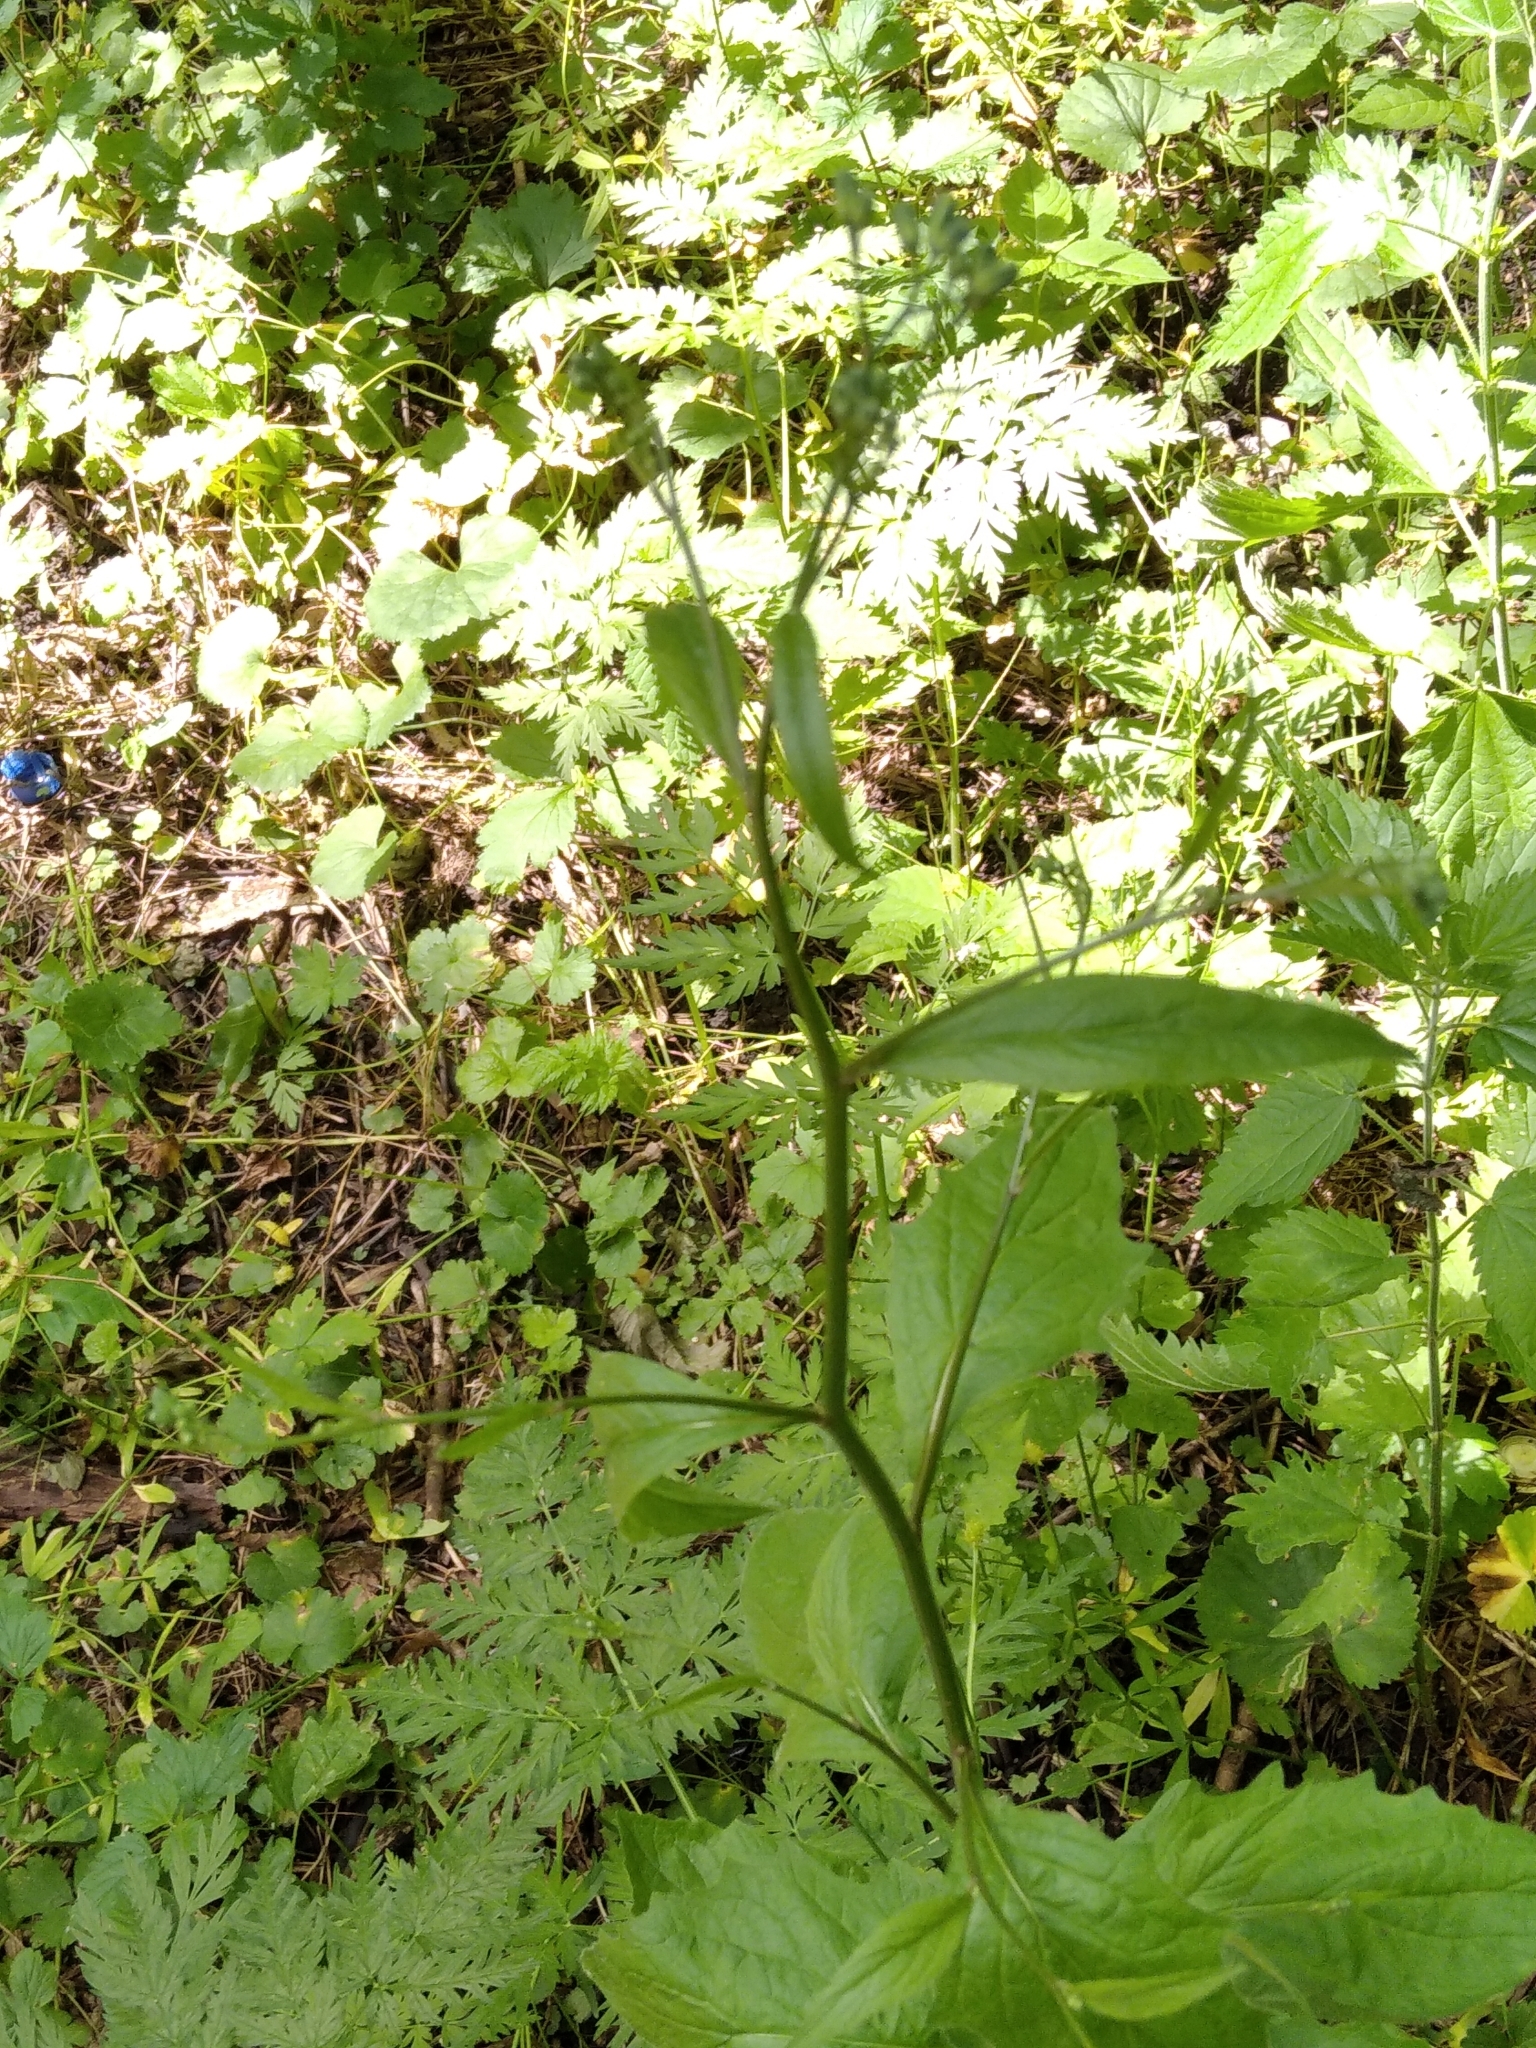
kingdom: Plantae
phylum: Tracheophyta
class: Magnoliopsida
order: Asterales
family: Asteraceae
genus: Lapsana
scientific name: Lapsana communis
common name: Nipplewort
